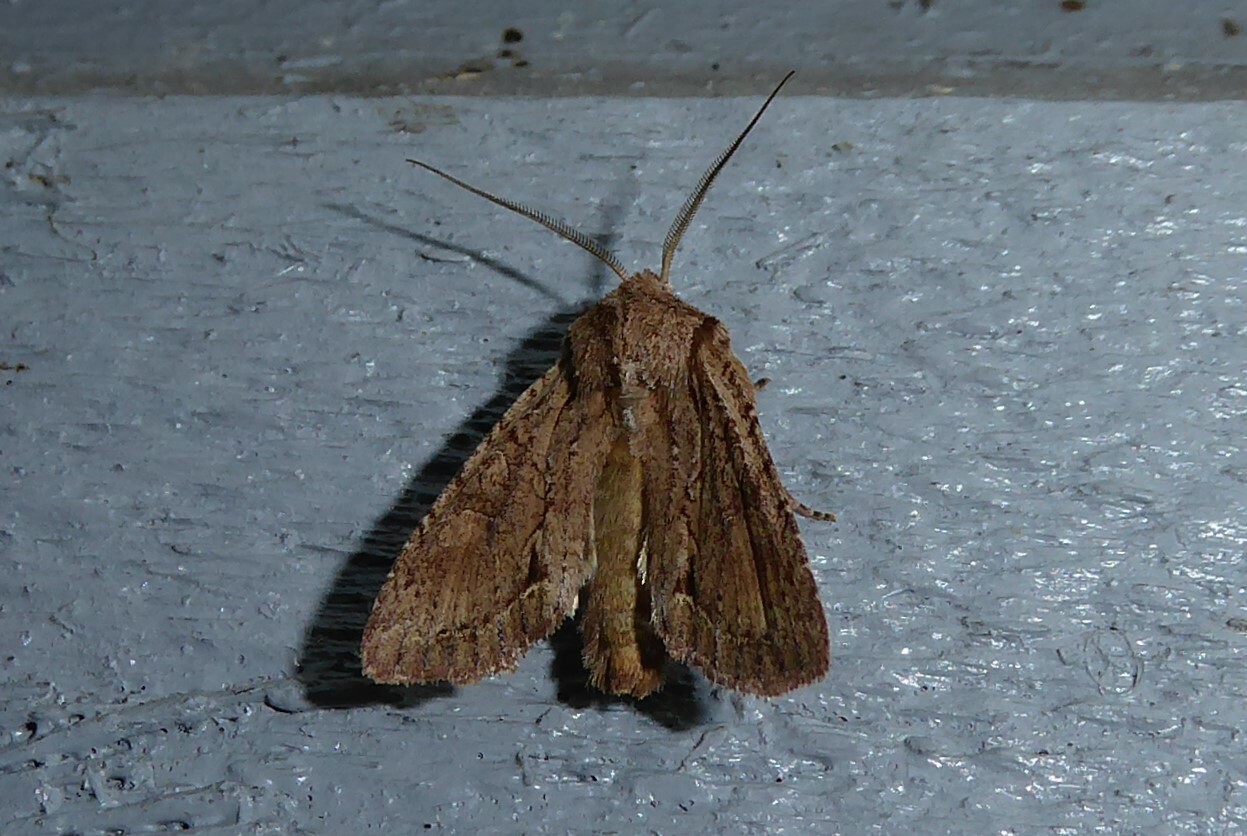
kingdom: Animalia
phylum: Arthropoda
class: Insecta
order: Lepidoptera
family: Noctuidae
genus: Ichneutica
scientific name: Ichneutica
